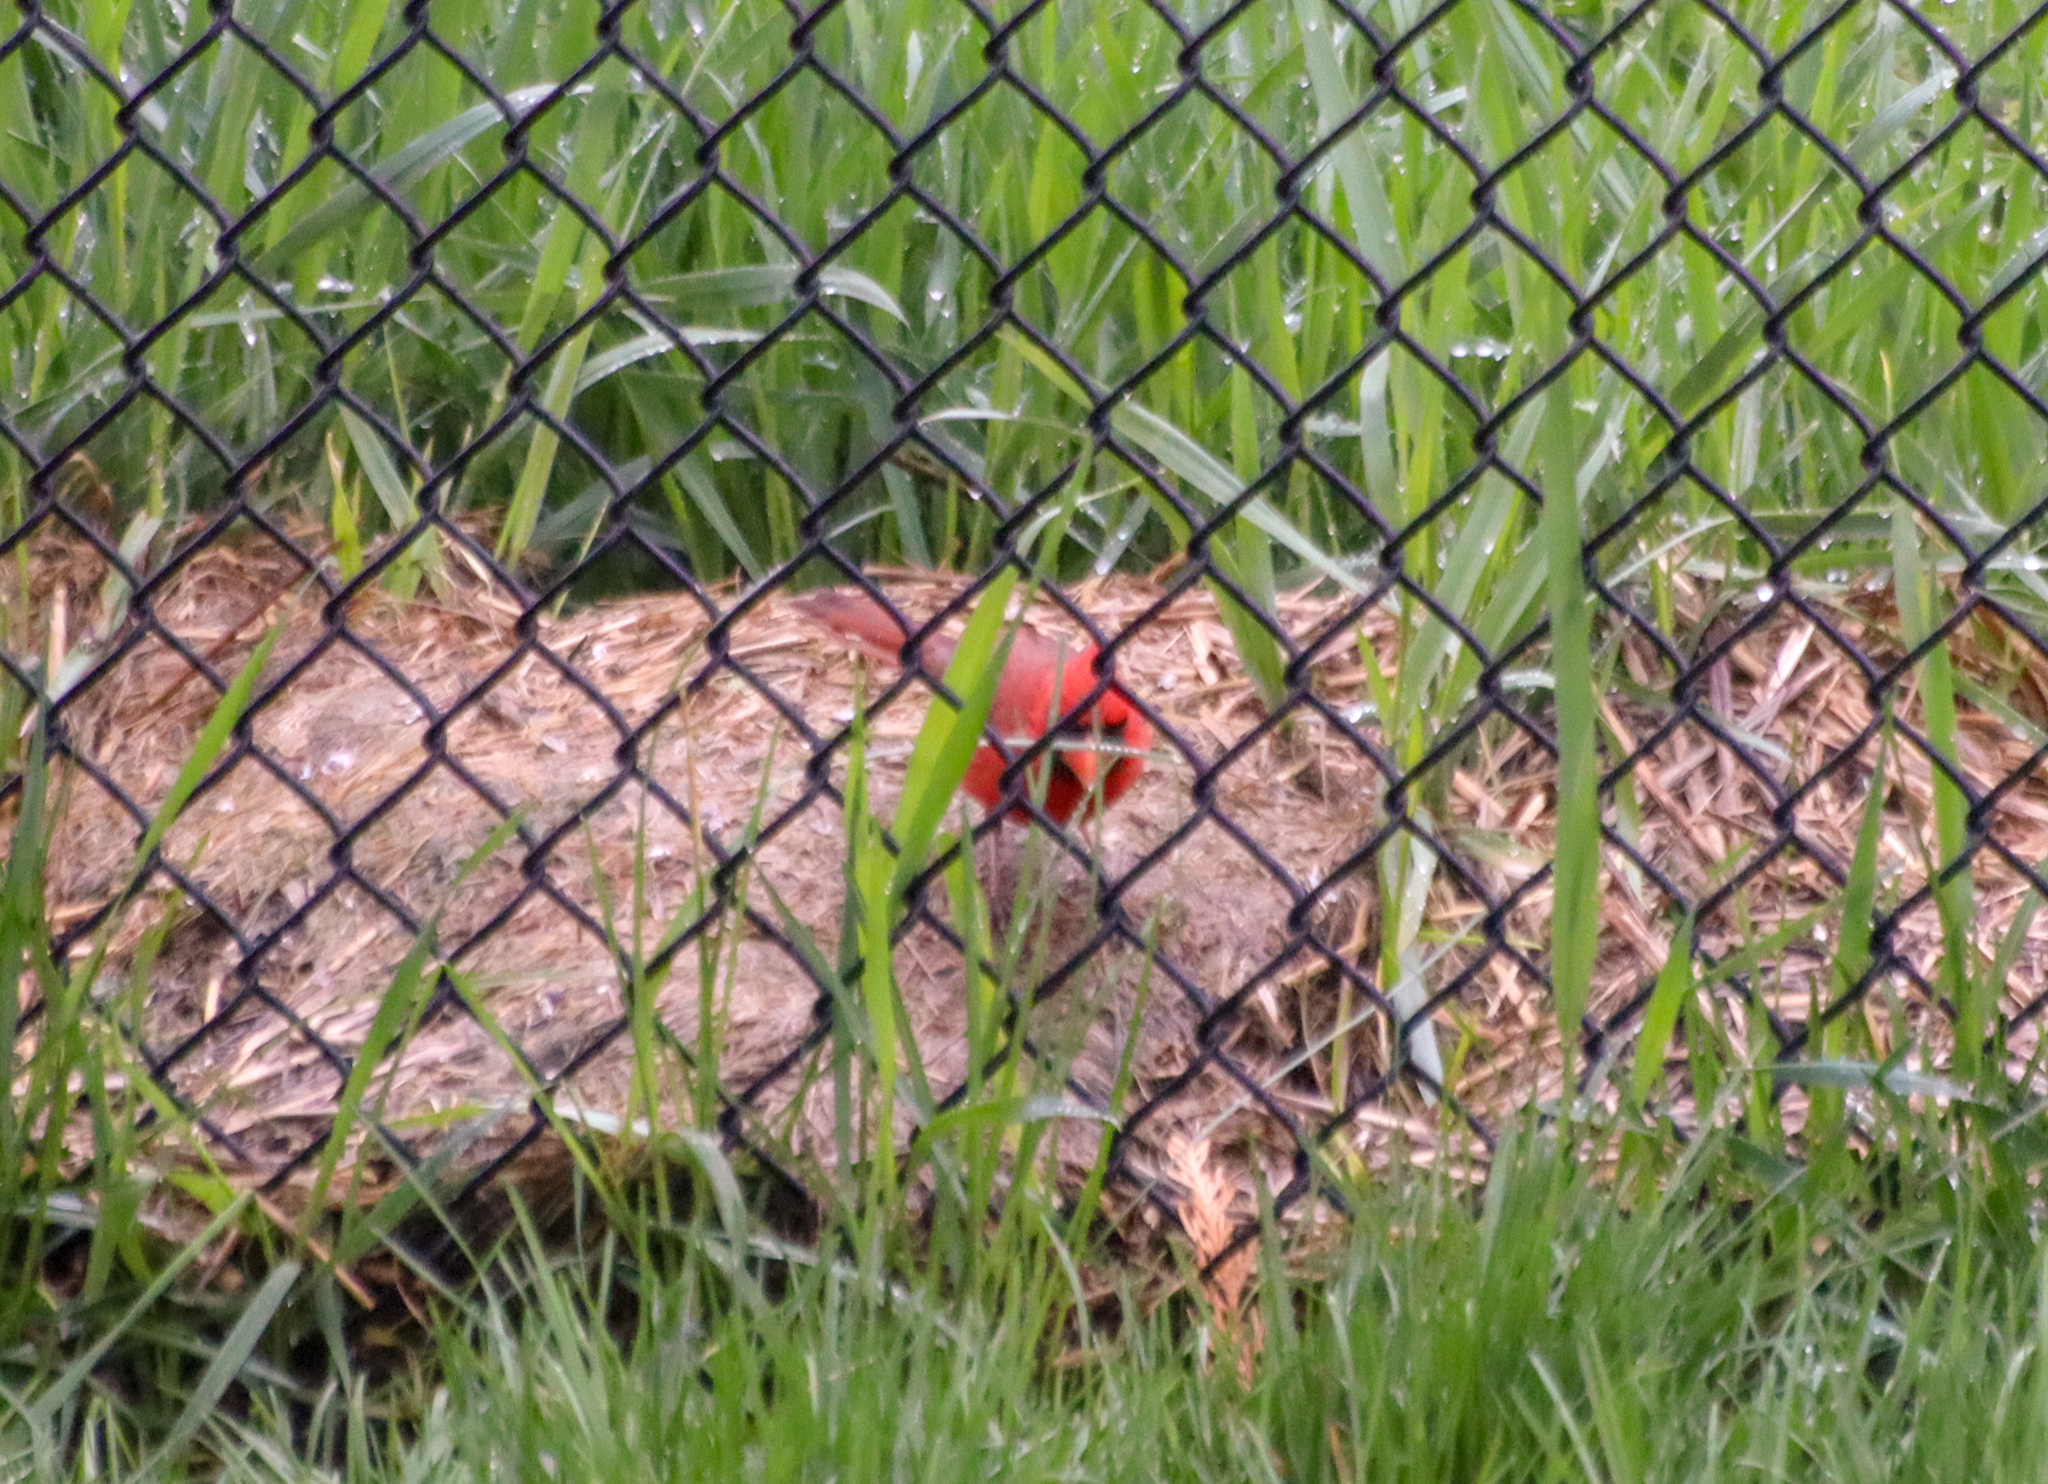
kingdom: Animalia
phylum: Chordata
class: Aves
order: Passeriformes
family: Cardinalidae
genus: Cardinalis
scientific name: Cardinalis cardinalis
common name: Northern cardinal
